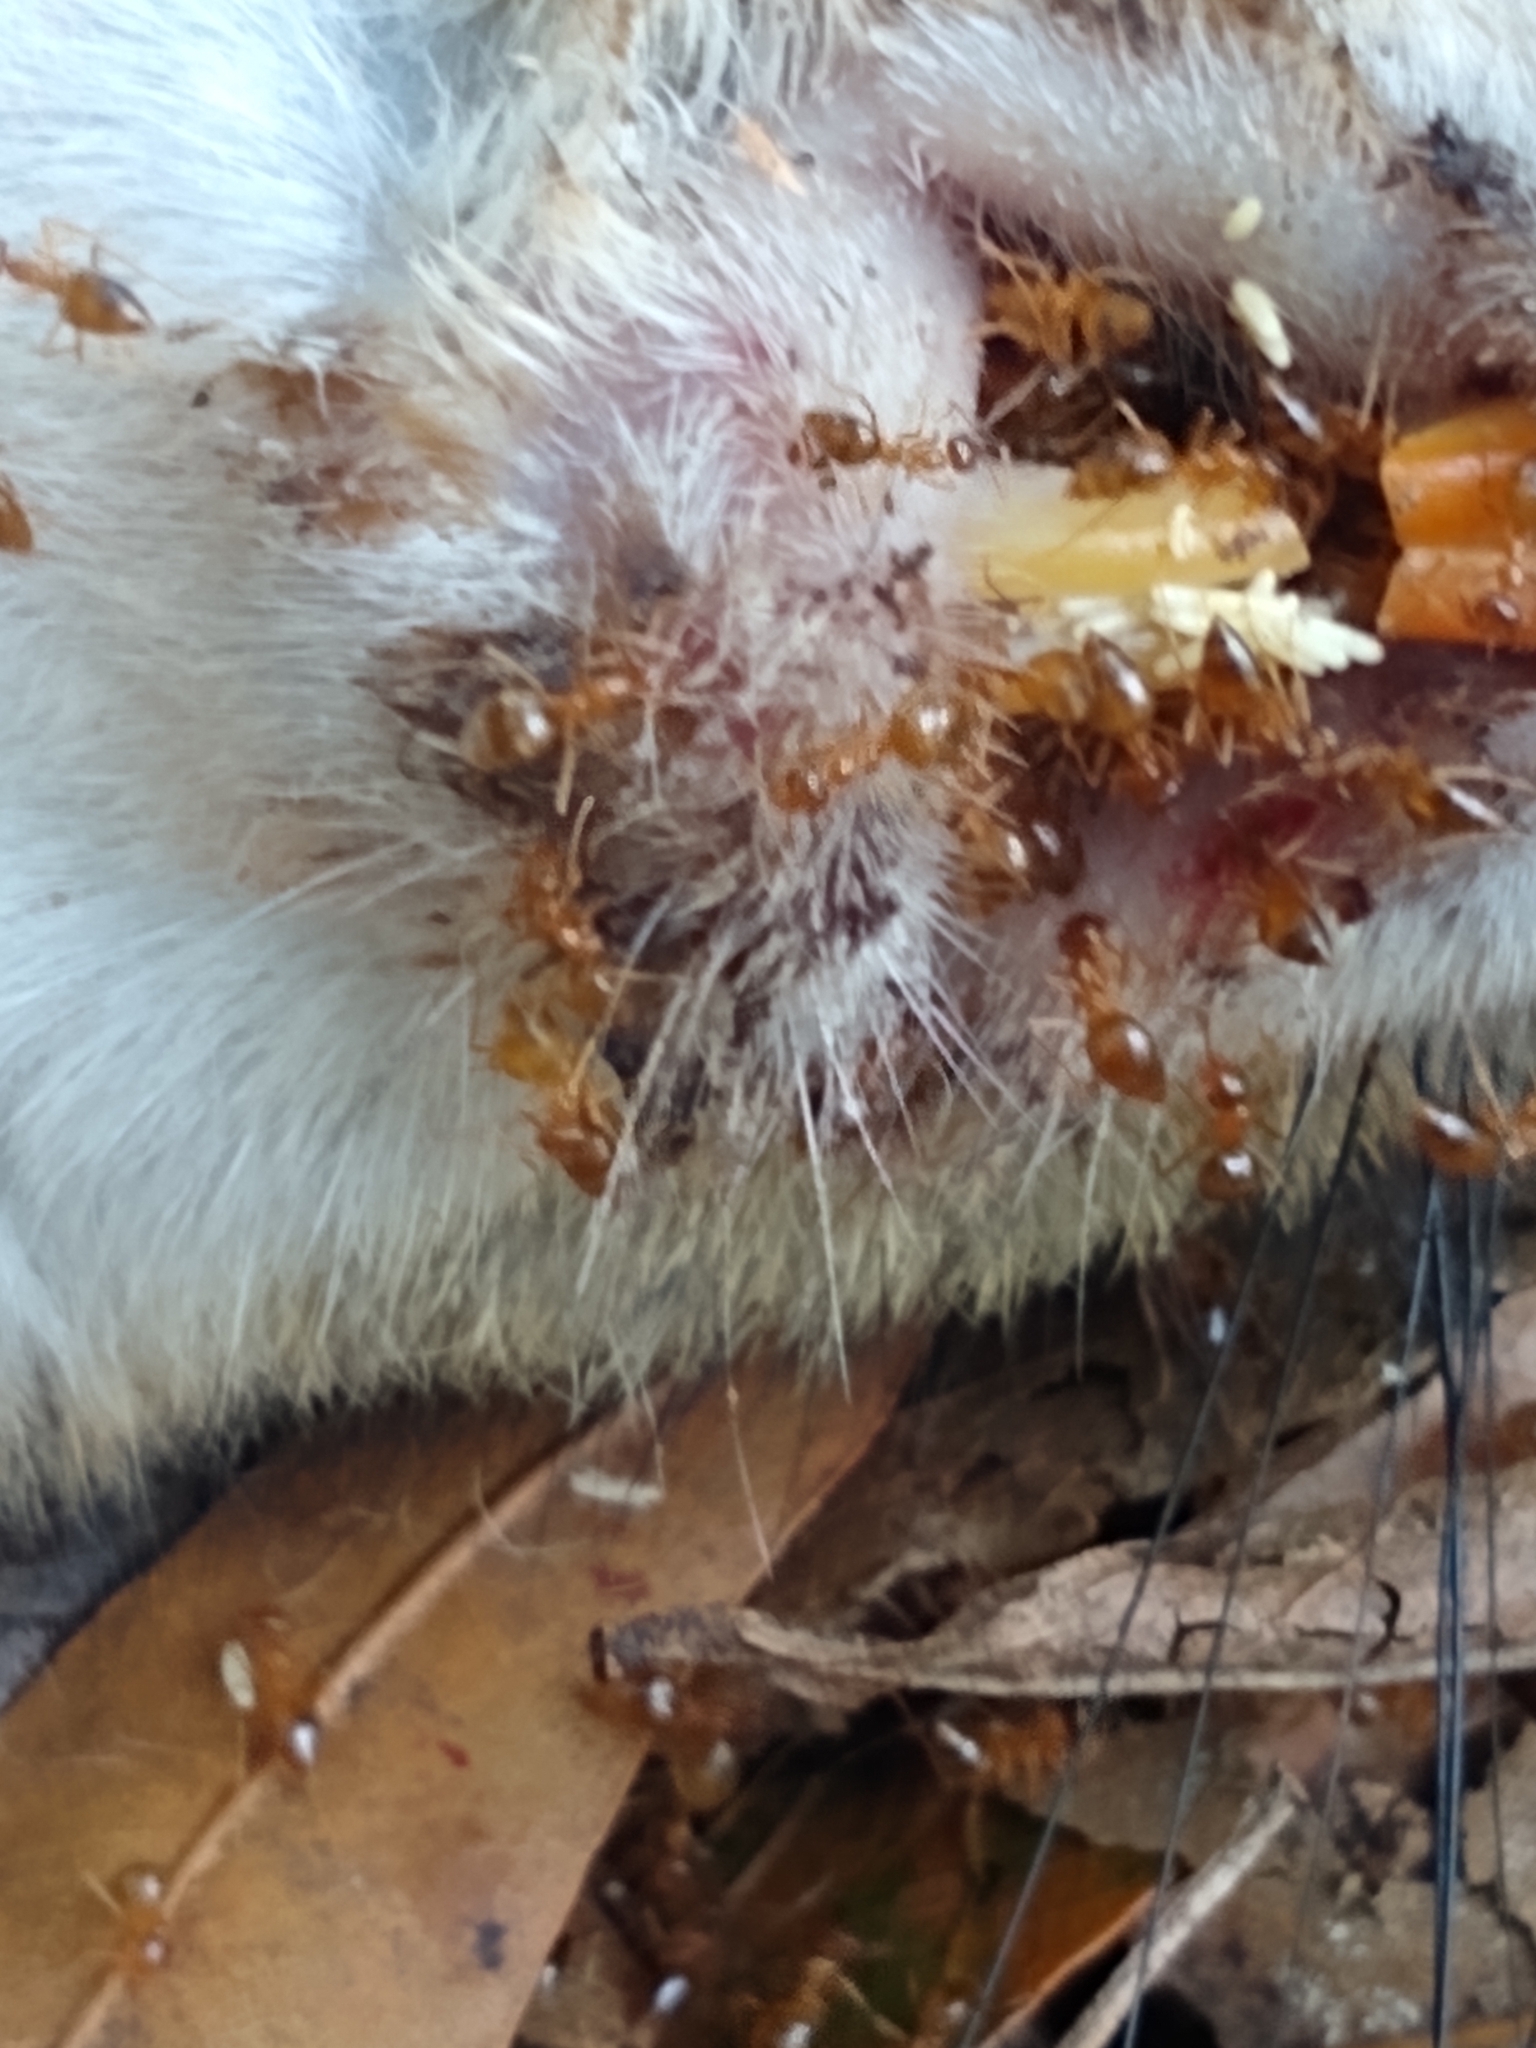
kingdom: Animalia
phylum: Arthropoda
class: Insecta
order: Hymenoptera
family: Formicidae
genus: Prenolepis
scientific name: Prenolepis imparis
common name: Small honey ant
